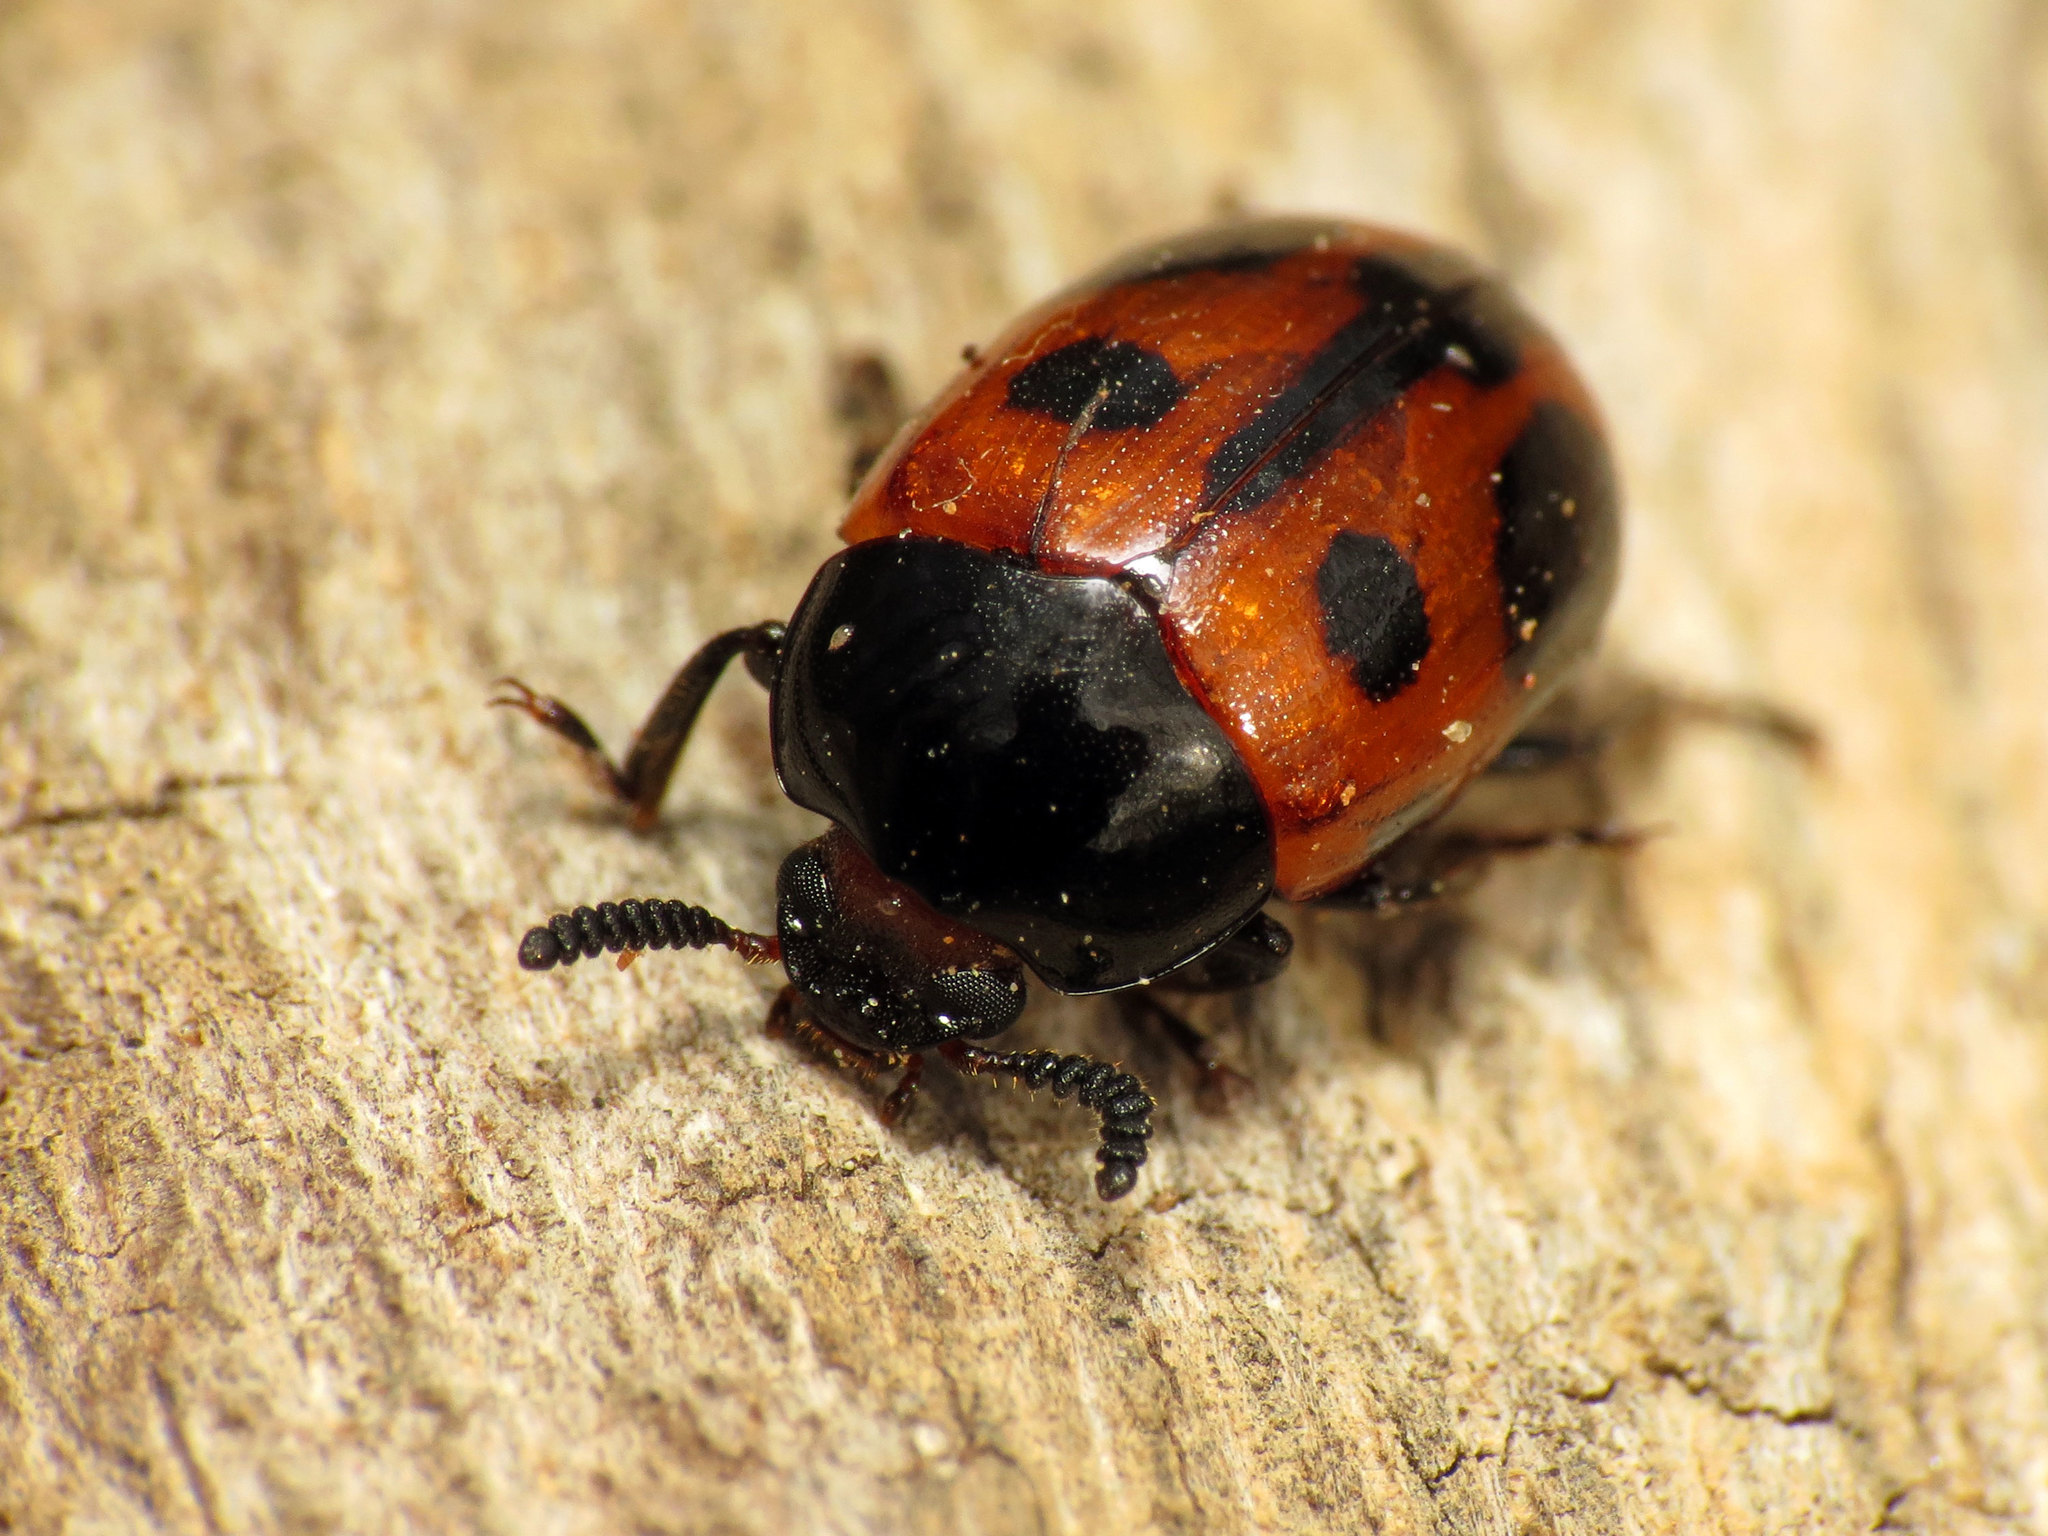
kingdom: Animalia
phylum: Arthropoda
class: Insecta
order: Coleoptera
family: Tenebrionidae
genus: Diaperis
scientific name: Diaperis maculata
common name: Darkling beetle
